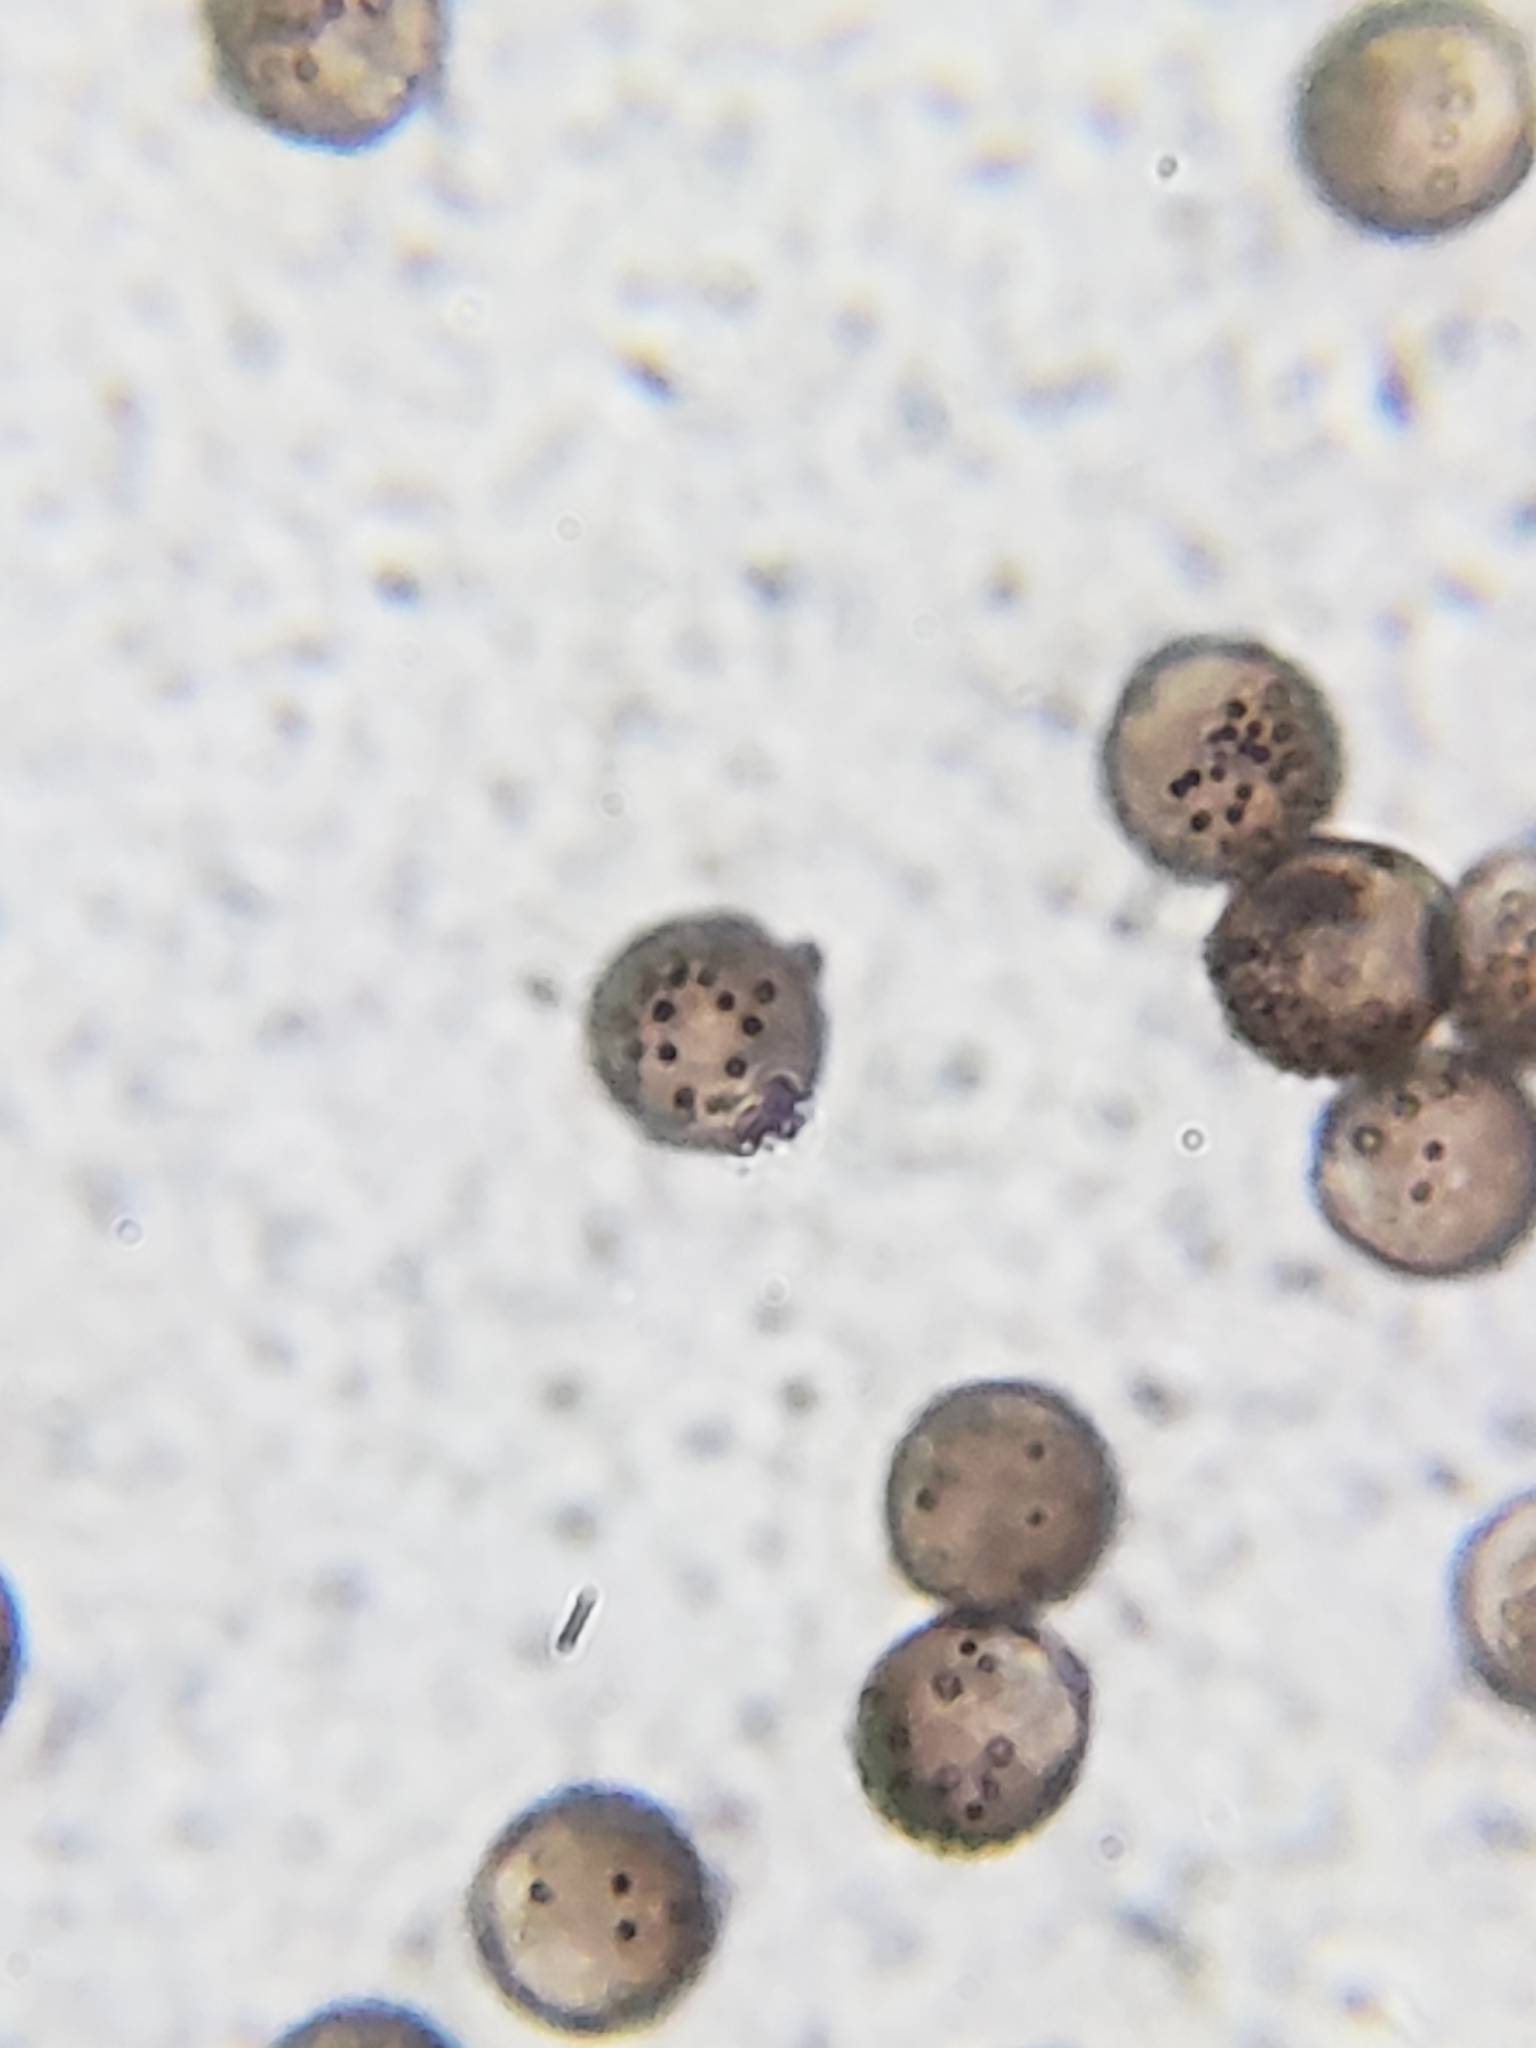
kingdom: Protozoa
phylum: Mycetozoa
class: Myxomycetes
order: Physarales
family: Didymiaceae
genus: Diderma
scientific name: Diderma floriforme
